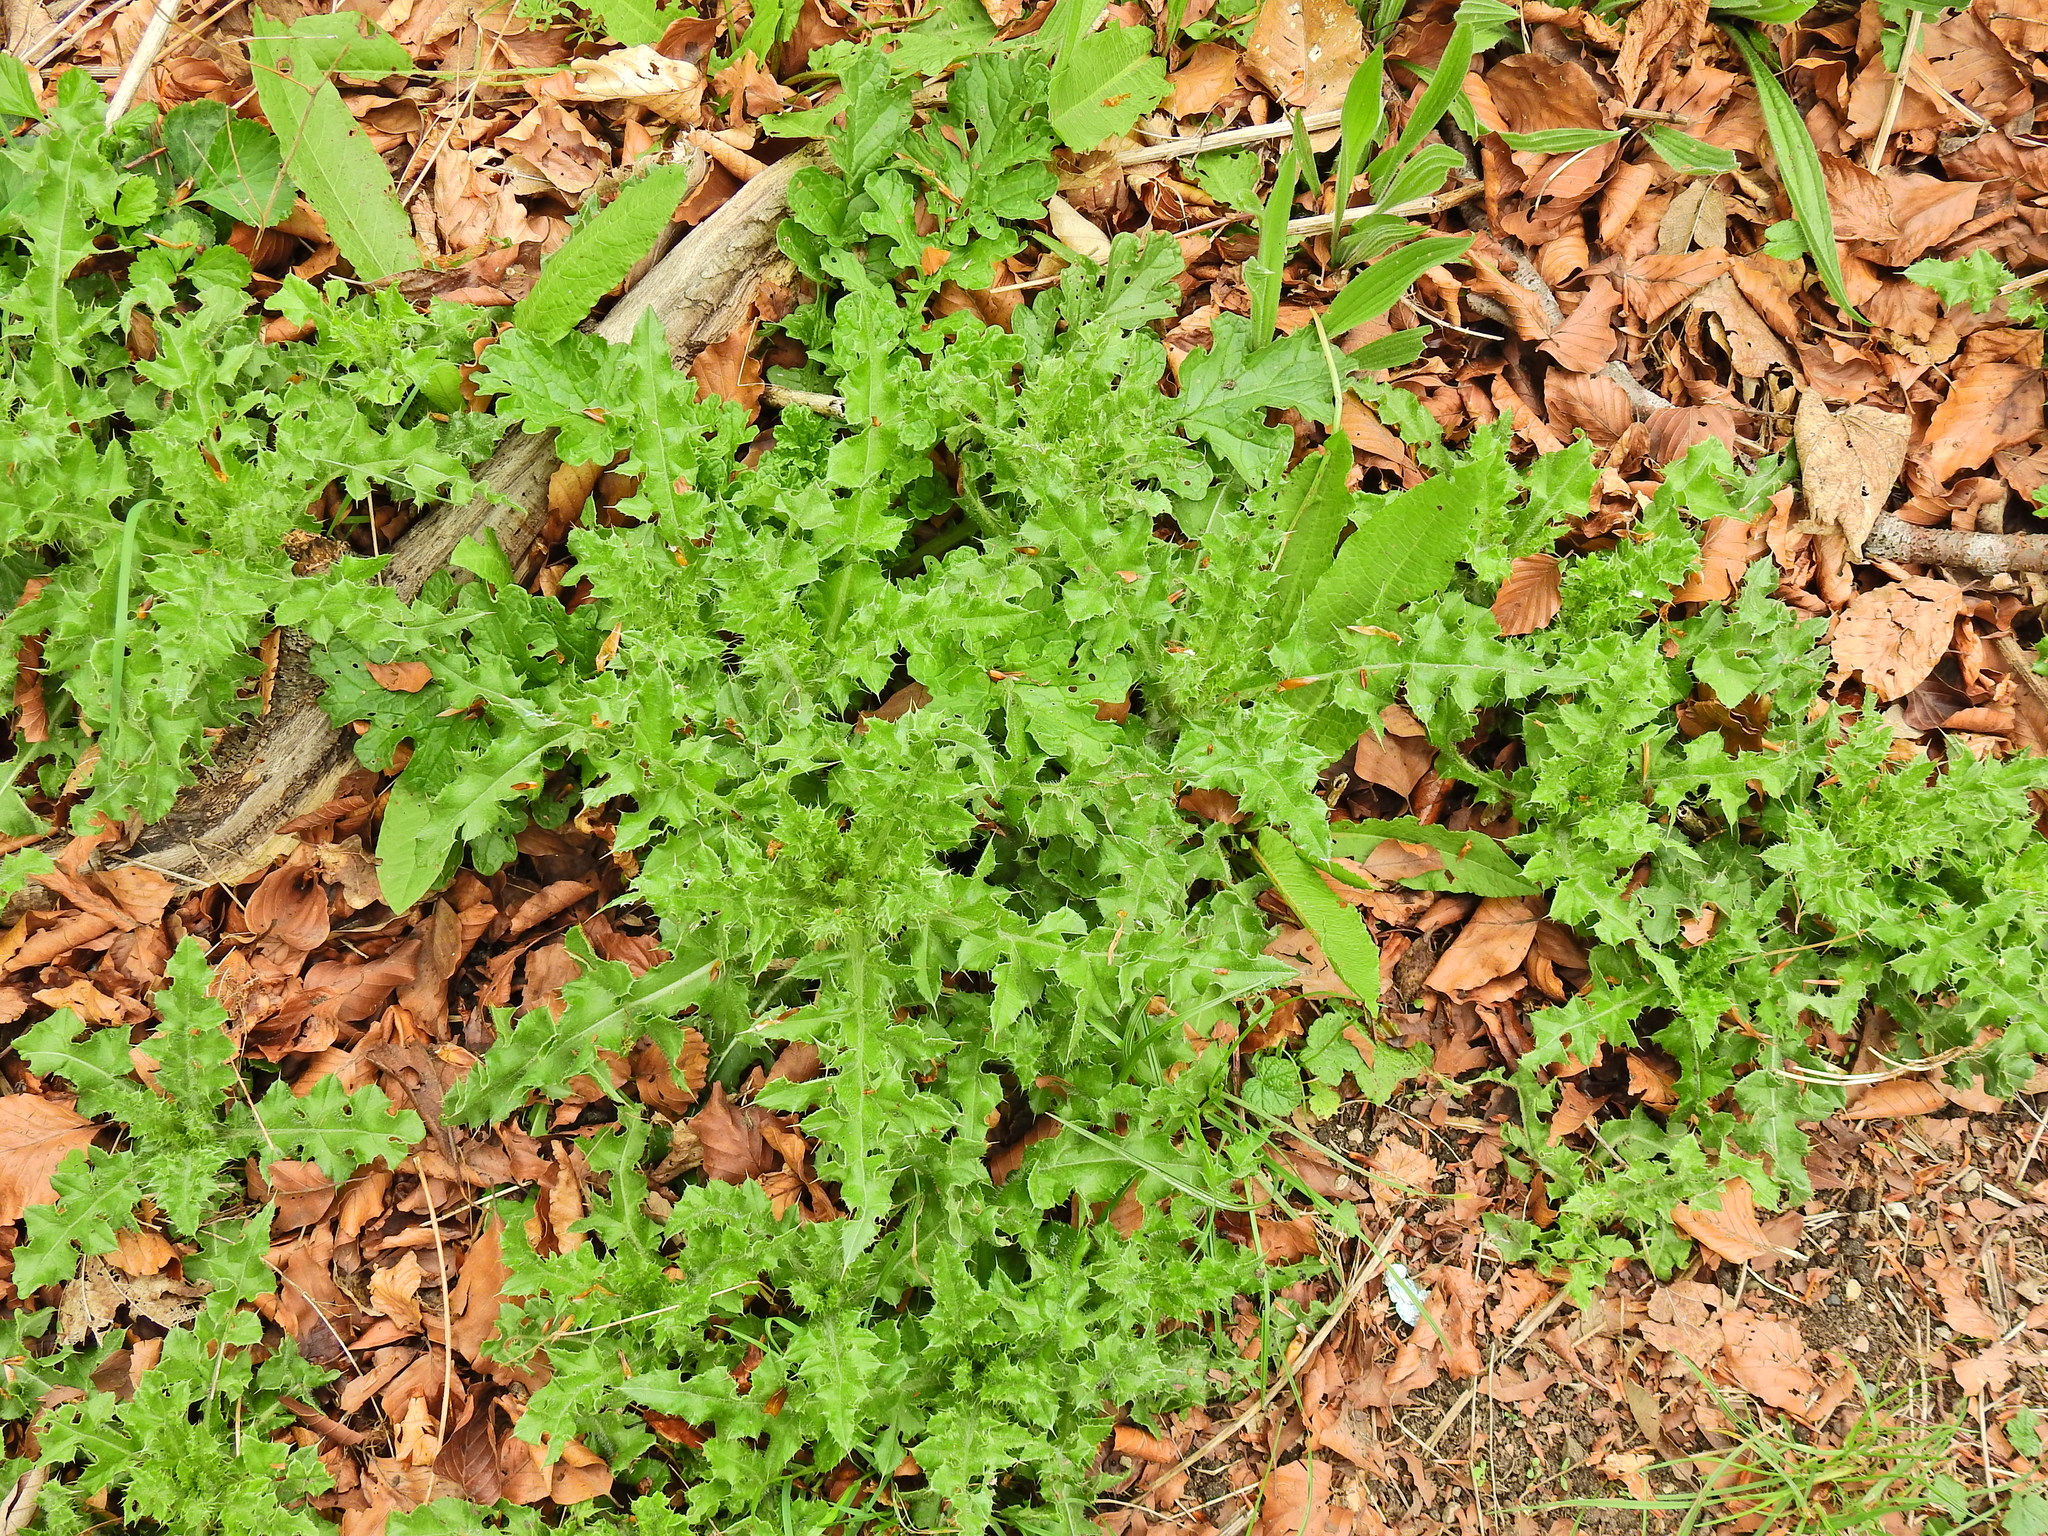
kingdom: Plantae
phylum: Tracheophyta
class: Magnoliopsida
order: Asterales
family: Asteraceae
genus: Cirsium
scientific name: Cirsium arvense
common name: Creeping thistle
